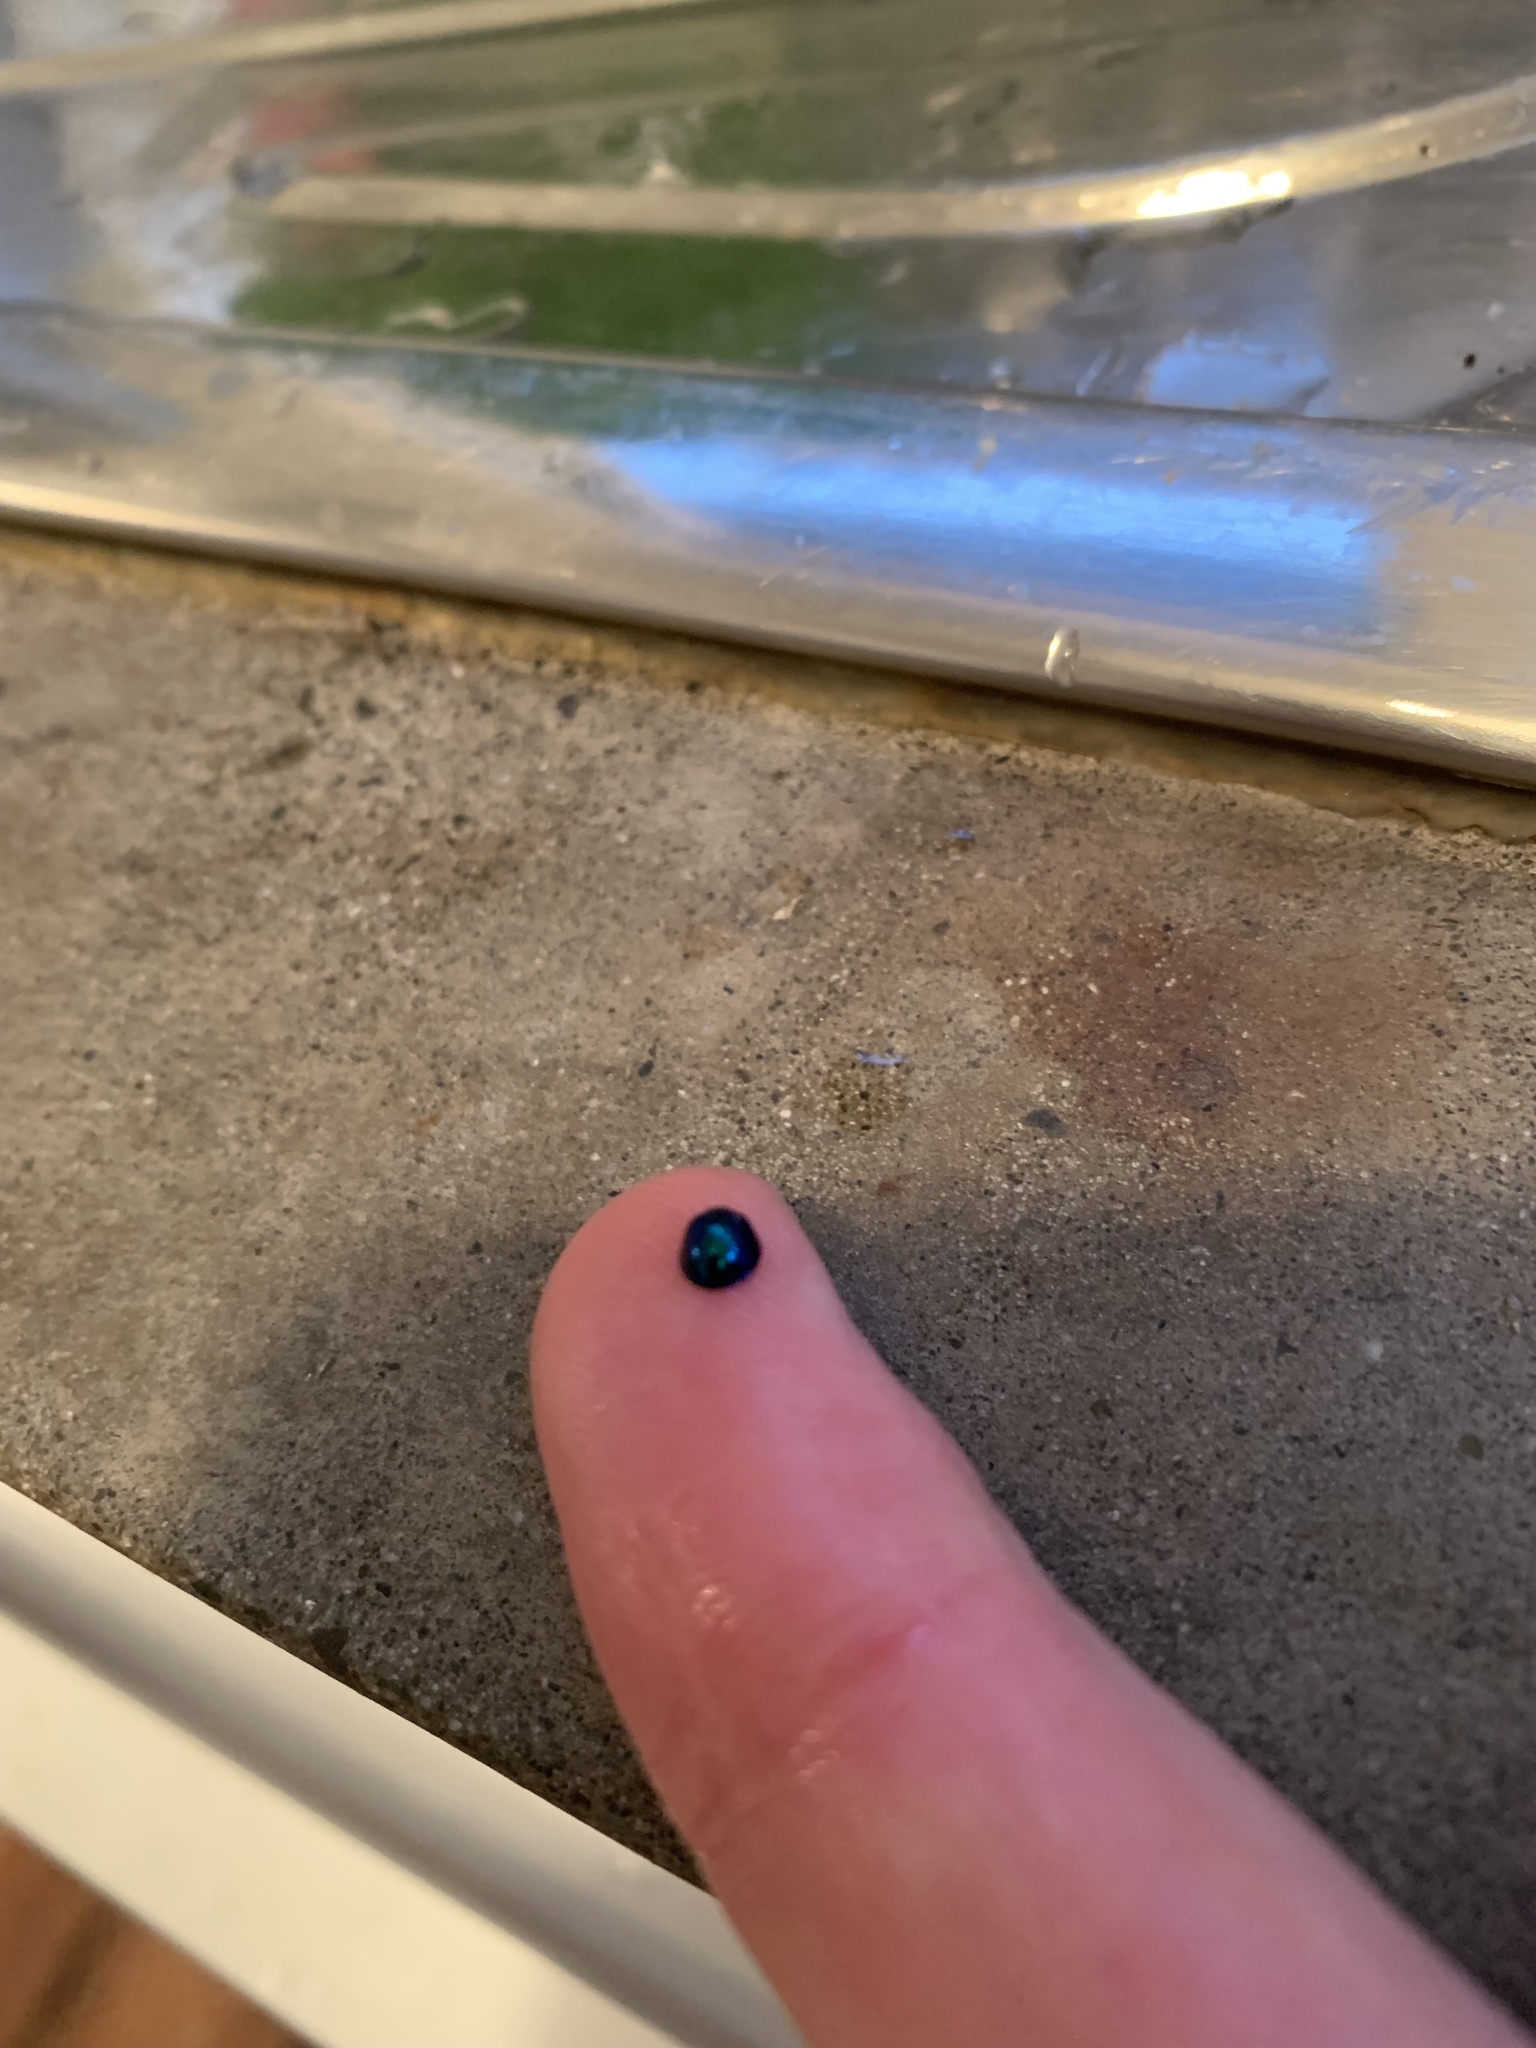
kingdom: Animalia
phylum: Arthropoda
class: Insecta
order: Coleoptera
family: Coccinellidae
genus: Halmus
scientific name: Halmus chalybeus
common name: Steel blue ladybird beetle
